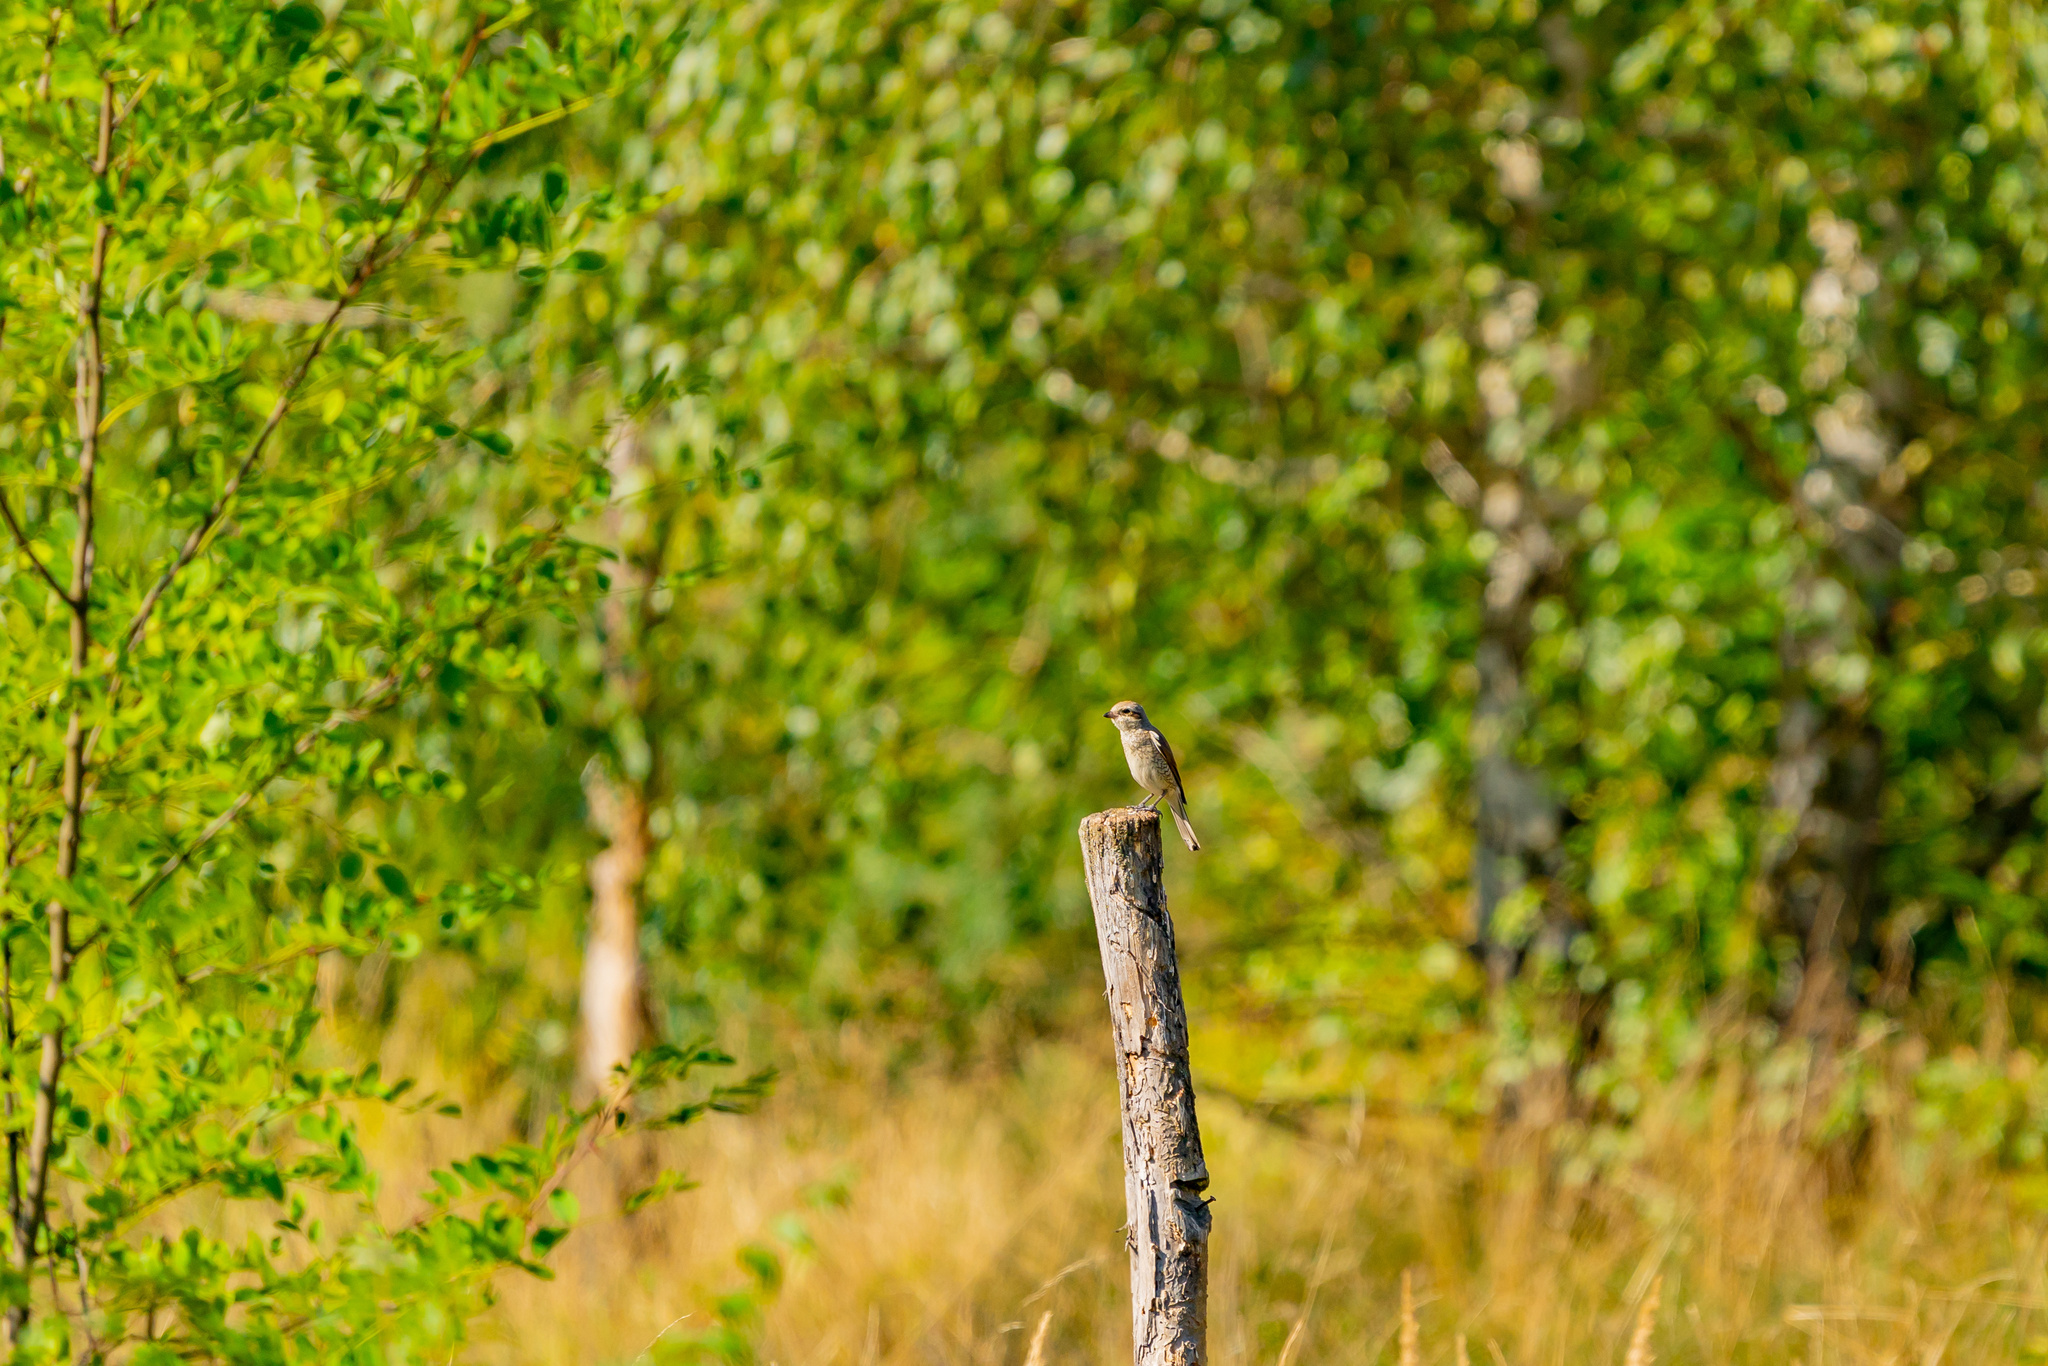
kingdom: Animalia
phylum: Chordata
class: Aves
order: Passeriformes
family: Laniidae
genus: Lanius
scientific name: Lanius collurio
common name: Red-backed shrike
